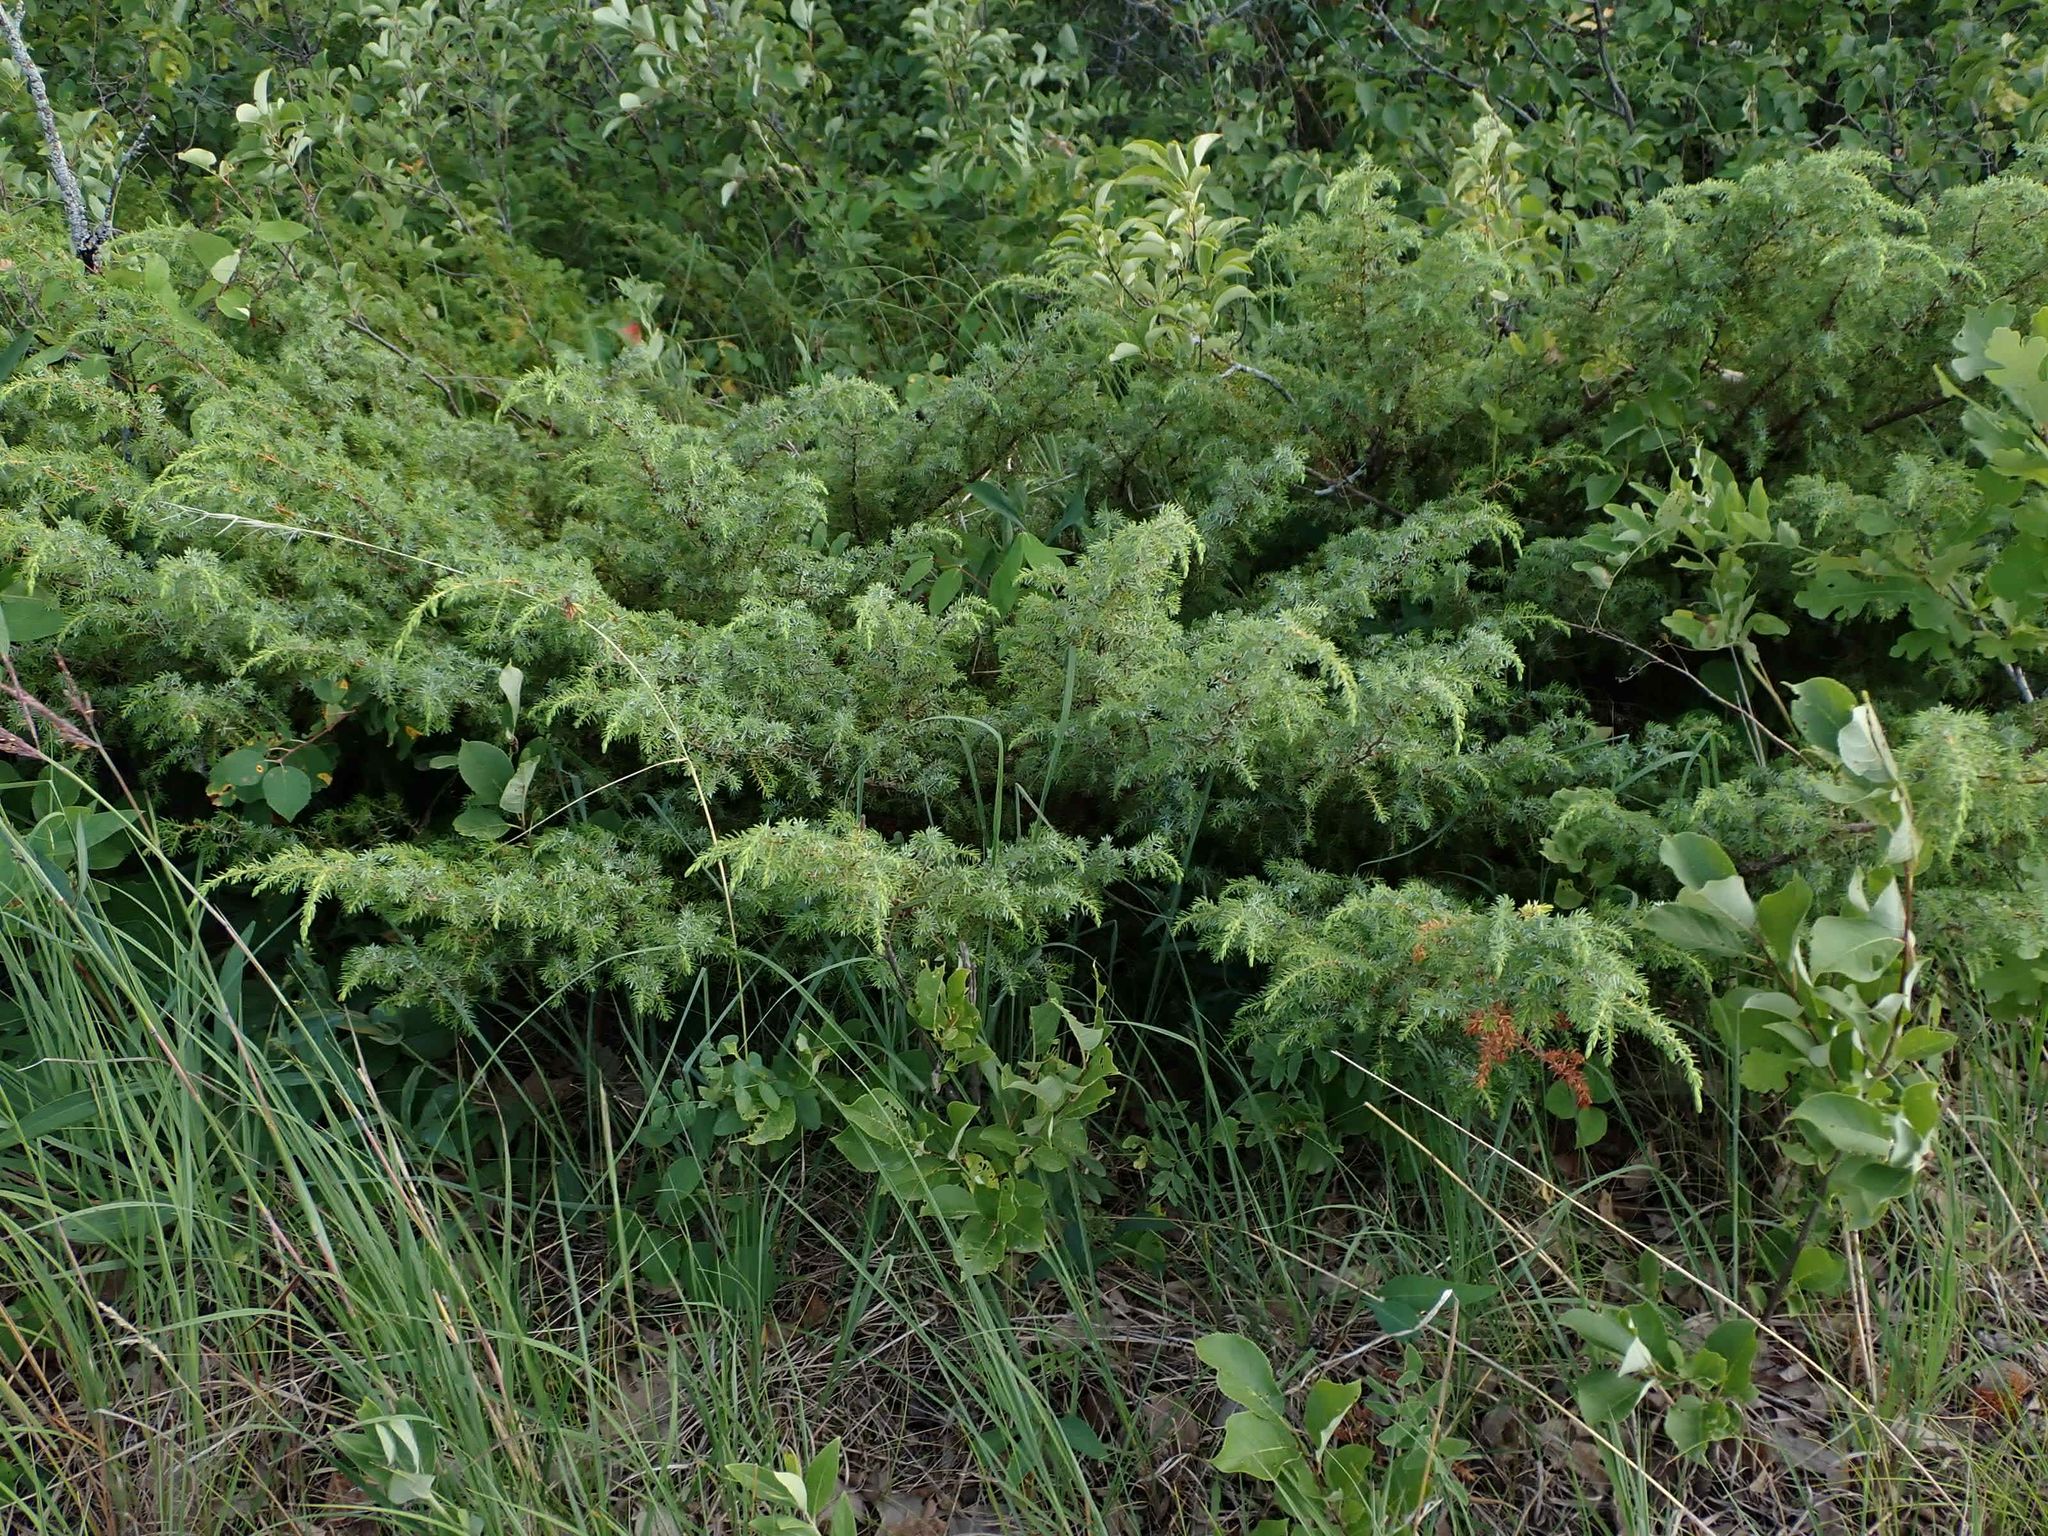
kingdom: Plantae
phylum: Tracheophyta
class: Pinopsida
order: Pinales
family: Cupressaceae
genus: Juniperus
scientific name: Juniperus communis
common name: Common juniper
